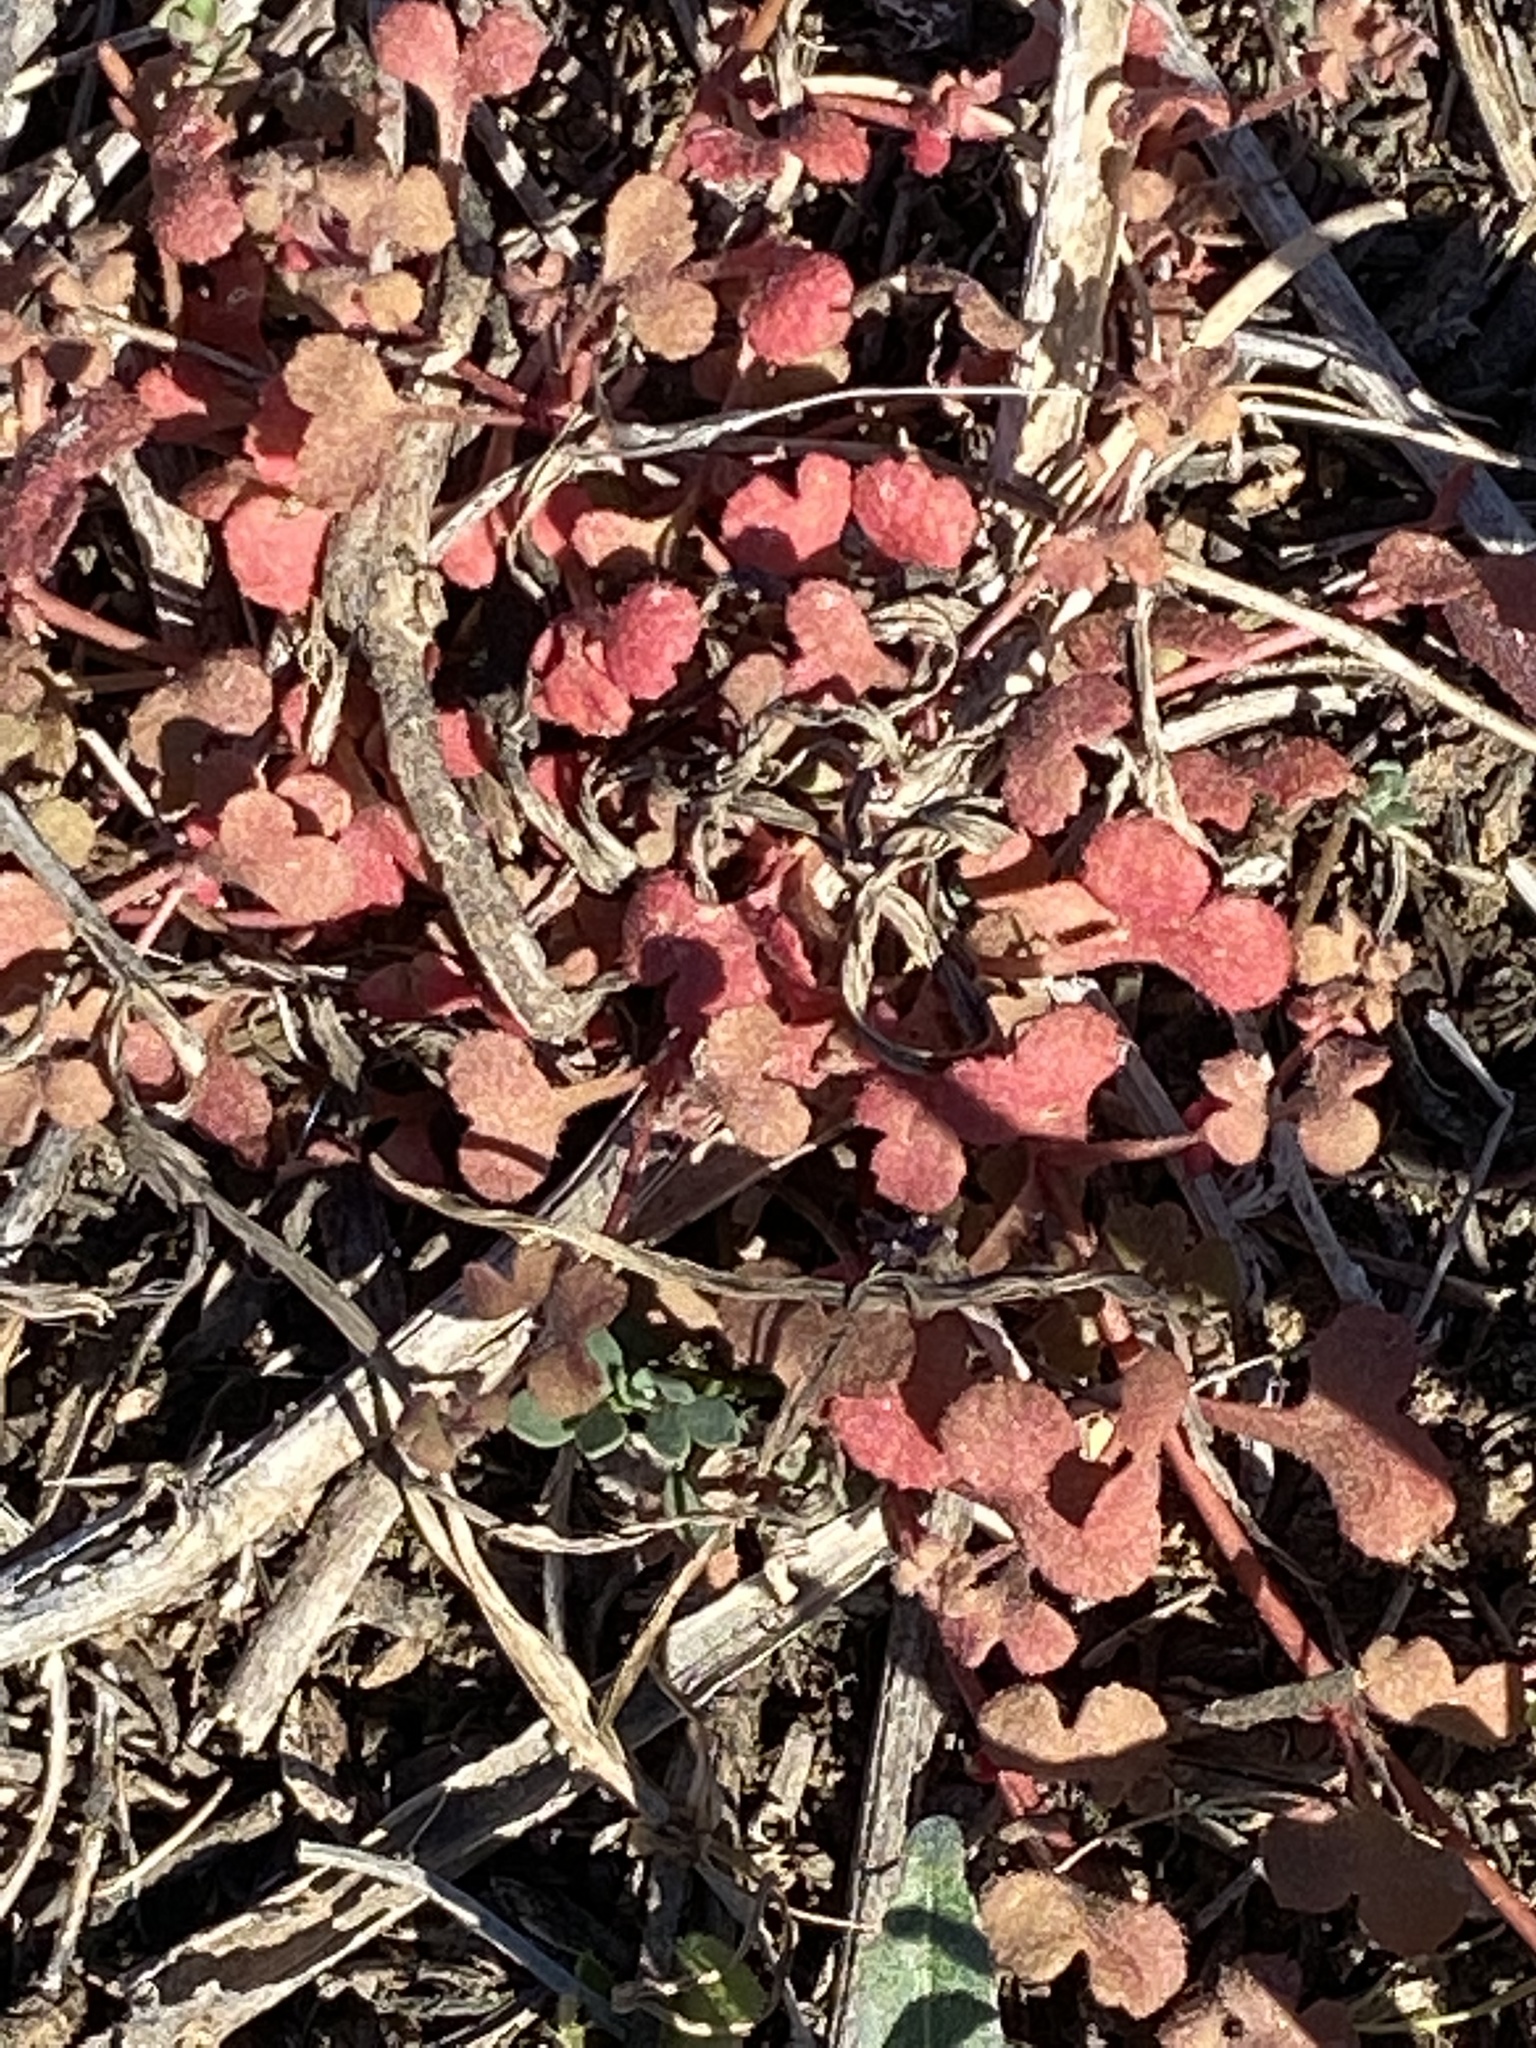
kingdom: Plantae
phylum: Tracheophyta
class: Magnoliopsida
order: Caryophyllales
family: Polygonaceae
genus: Pterostegia
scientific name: Pterostegia drymarioides
